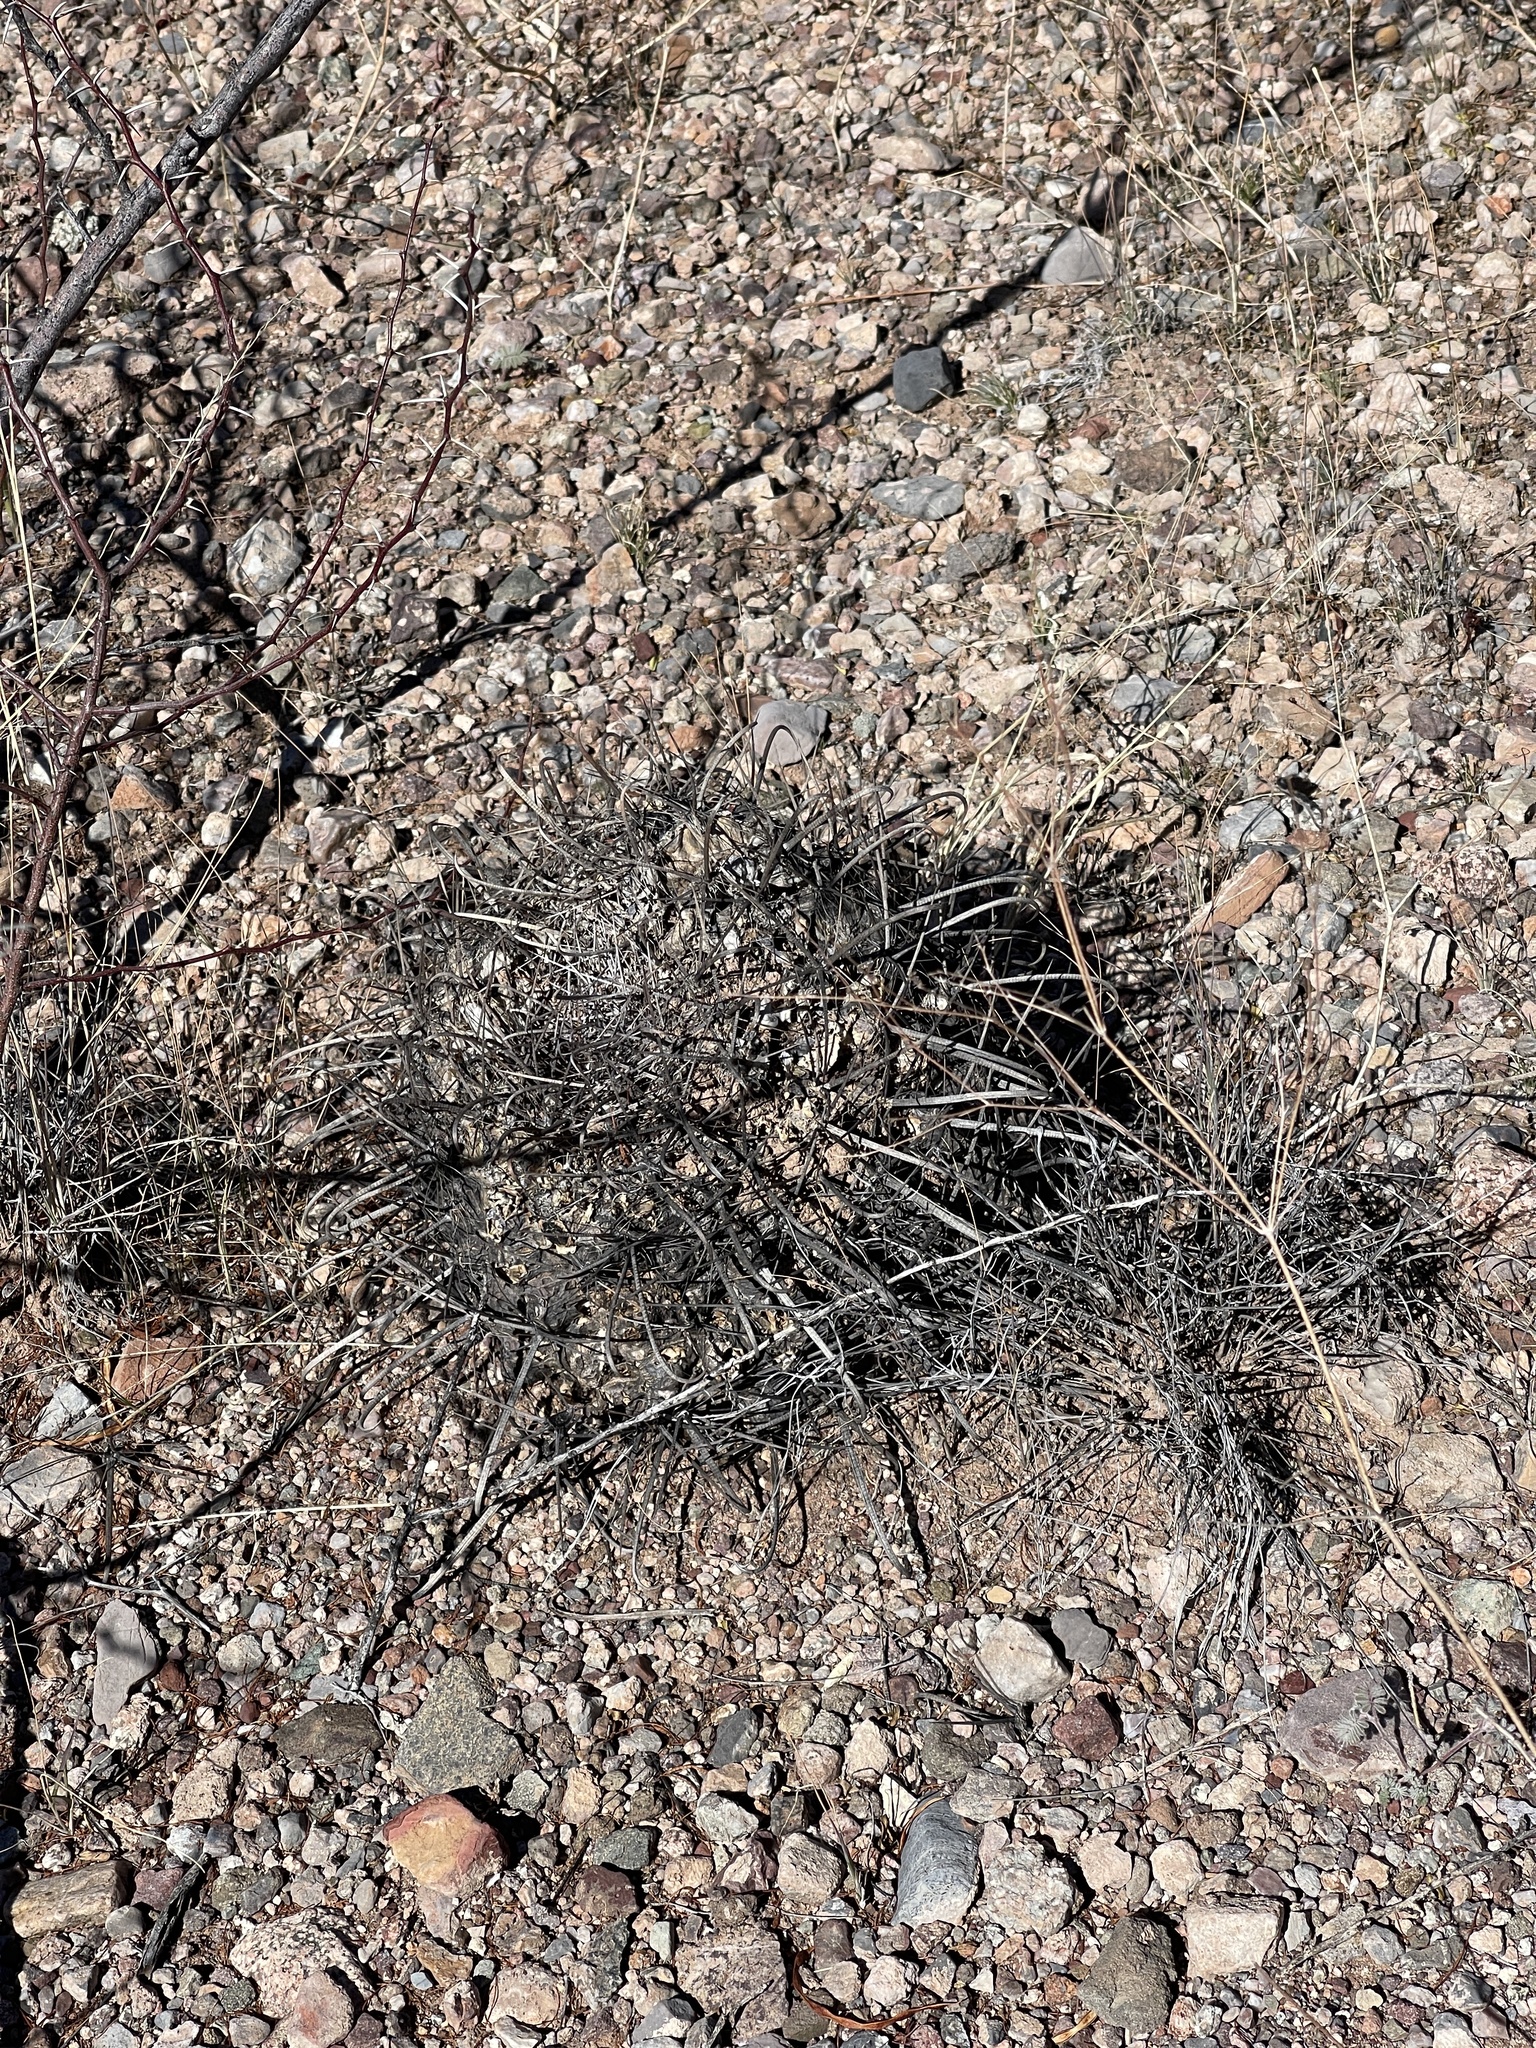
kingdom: Plantae
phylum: Tracheophyta
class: Magnoliopsida
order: Caryophyllales
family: Cactaceae
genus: Ferocactus
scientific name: Ferocactus wislizeni
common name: Candy barrel cactus
